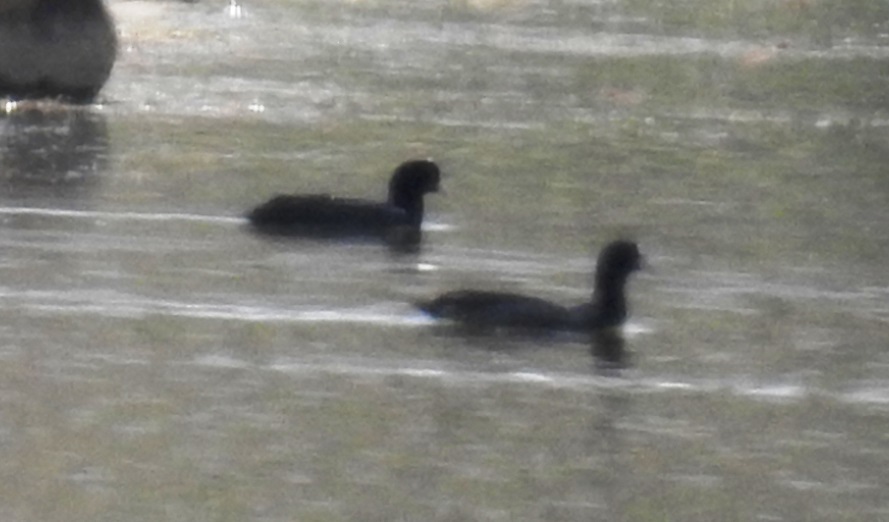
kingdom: Animalia
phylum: Chordata
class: Aves
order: Gruiformes
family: Rallidae
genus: Fulica
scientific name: Fulica atra
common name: Eurasian coot
